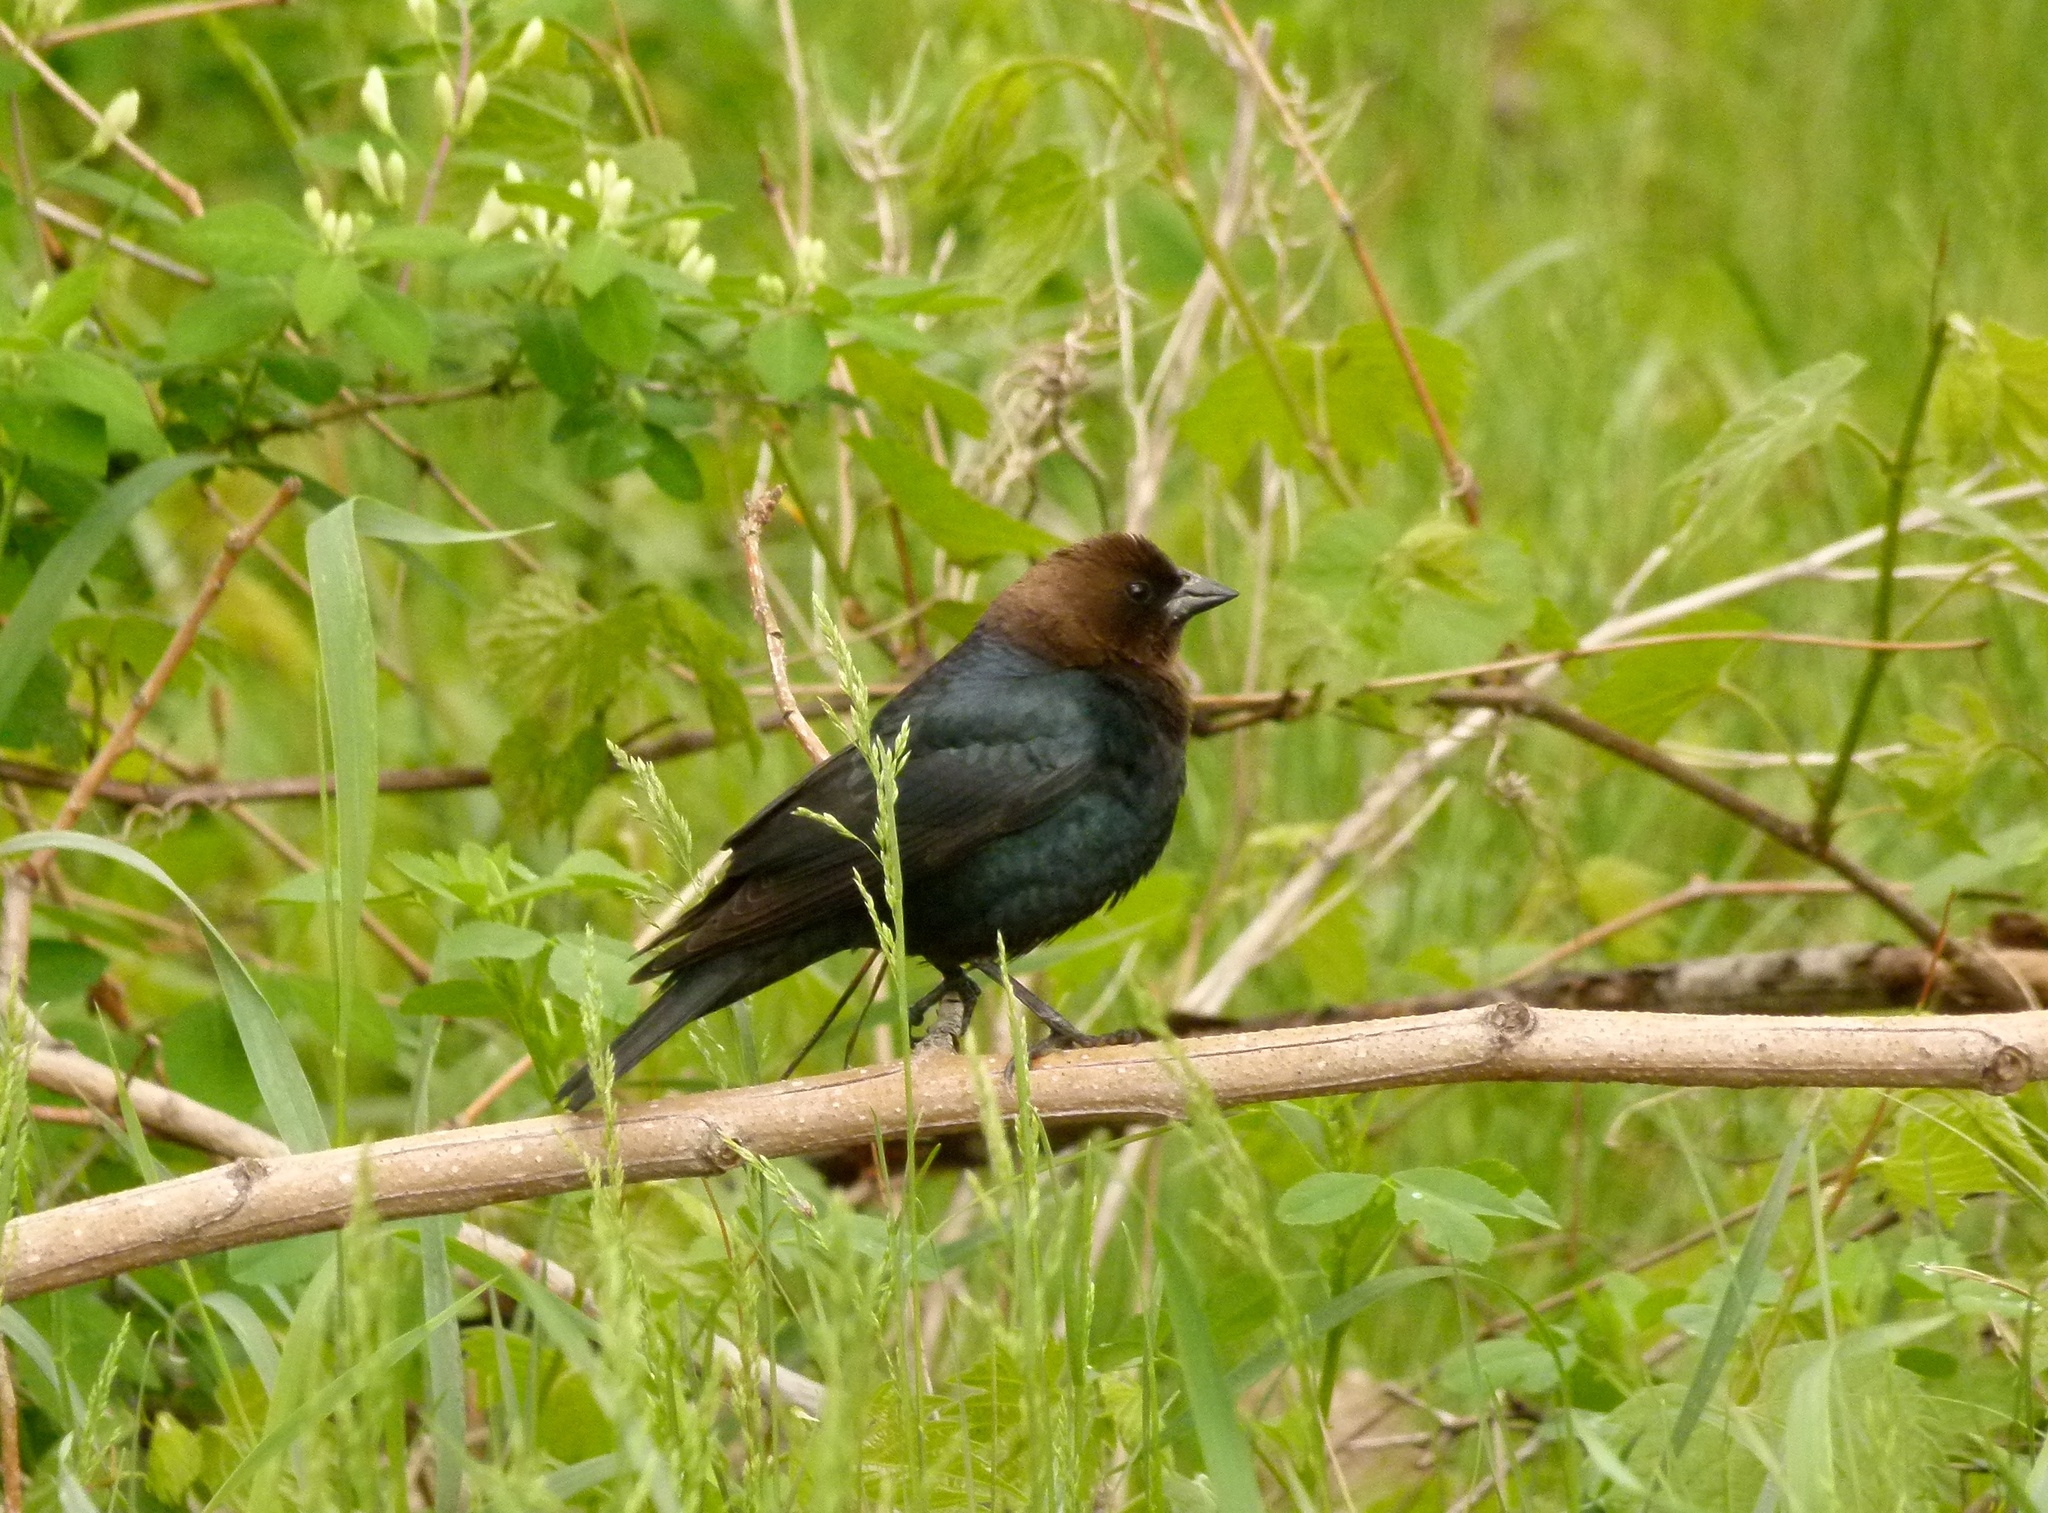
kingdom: Animalia
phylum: Chordata
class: Aves
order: Passeriformes
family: Icteridae
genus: Molothrus
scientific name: Molothrus ater
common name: Brown-headed cowbird
